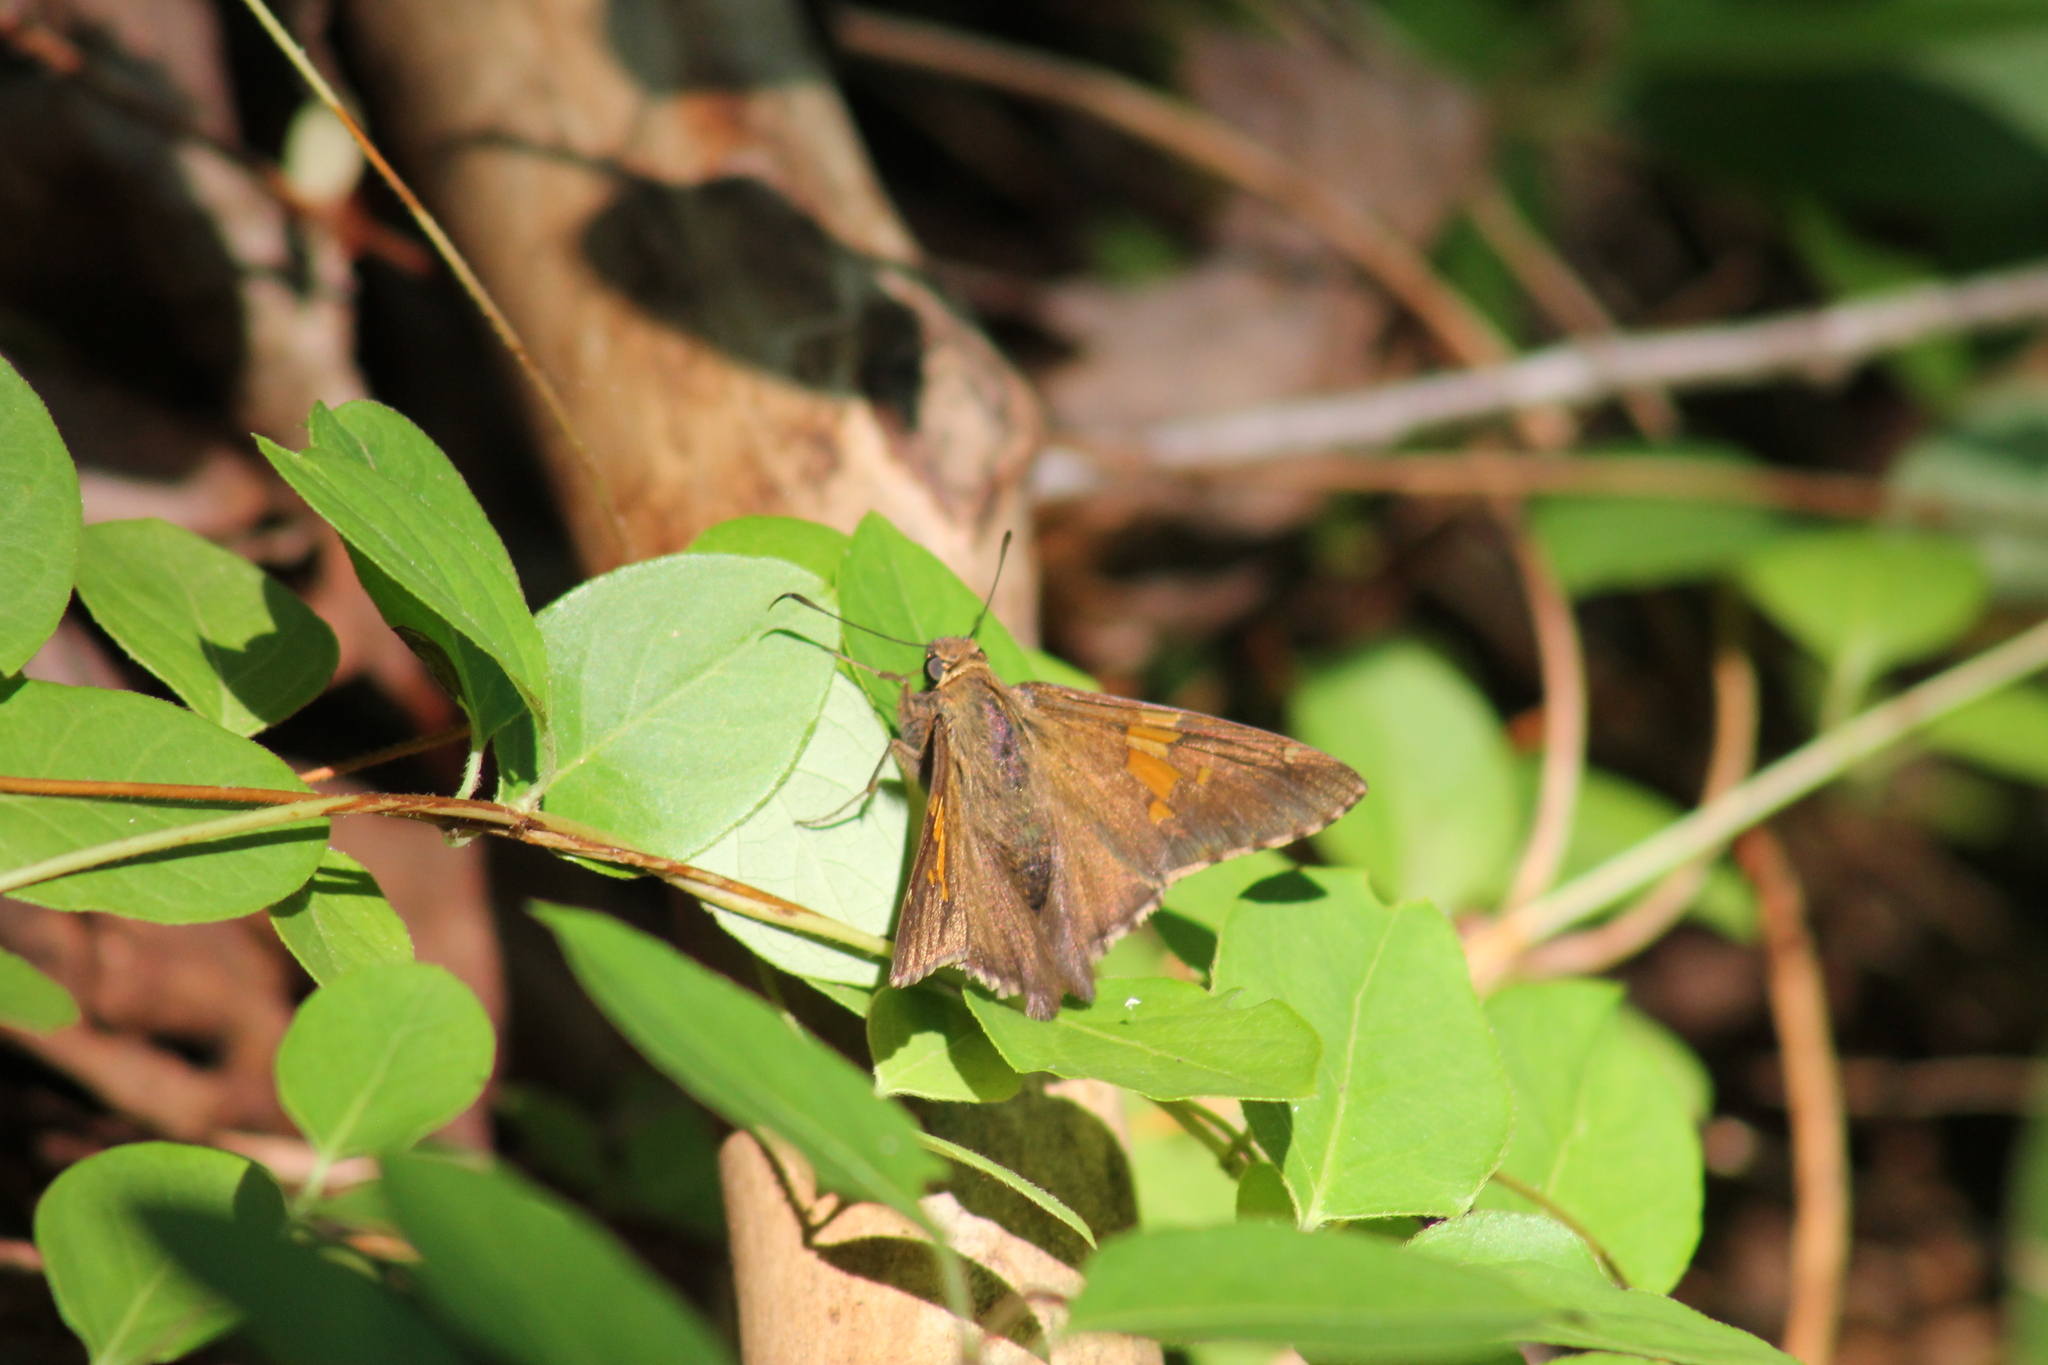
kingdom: Animalia
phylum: Arthropoda
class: Insecta
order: Lepidoptera
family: Hesperiidae
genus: Epargyreus
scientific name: Epargyreus clarus
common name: Silver-spotted skipper
